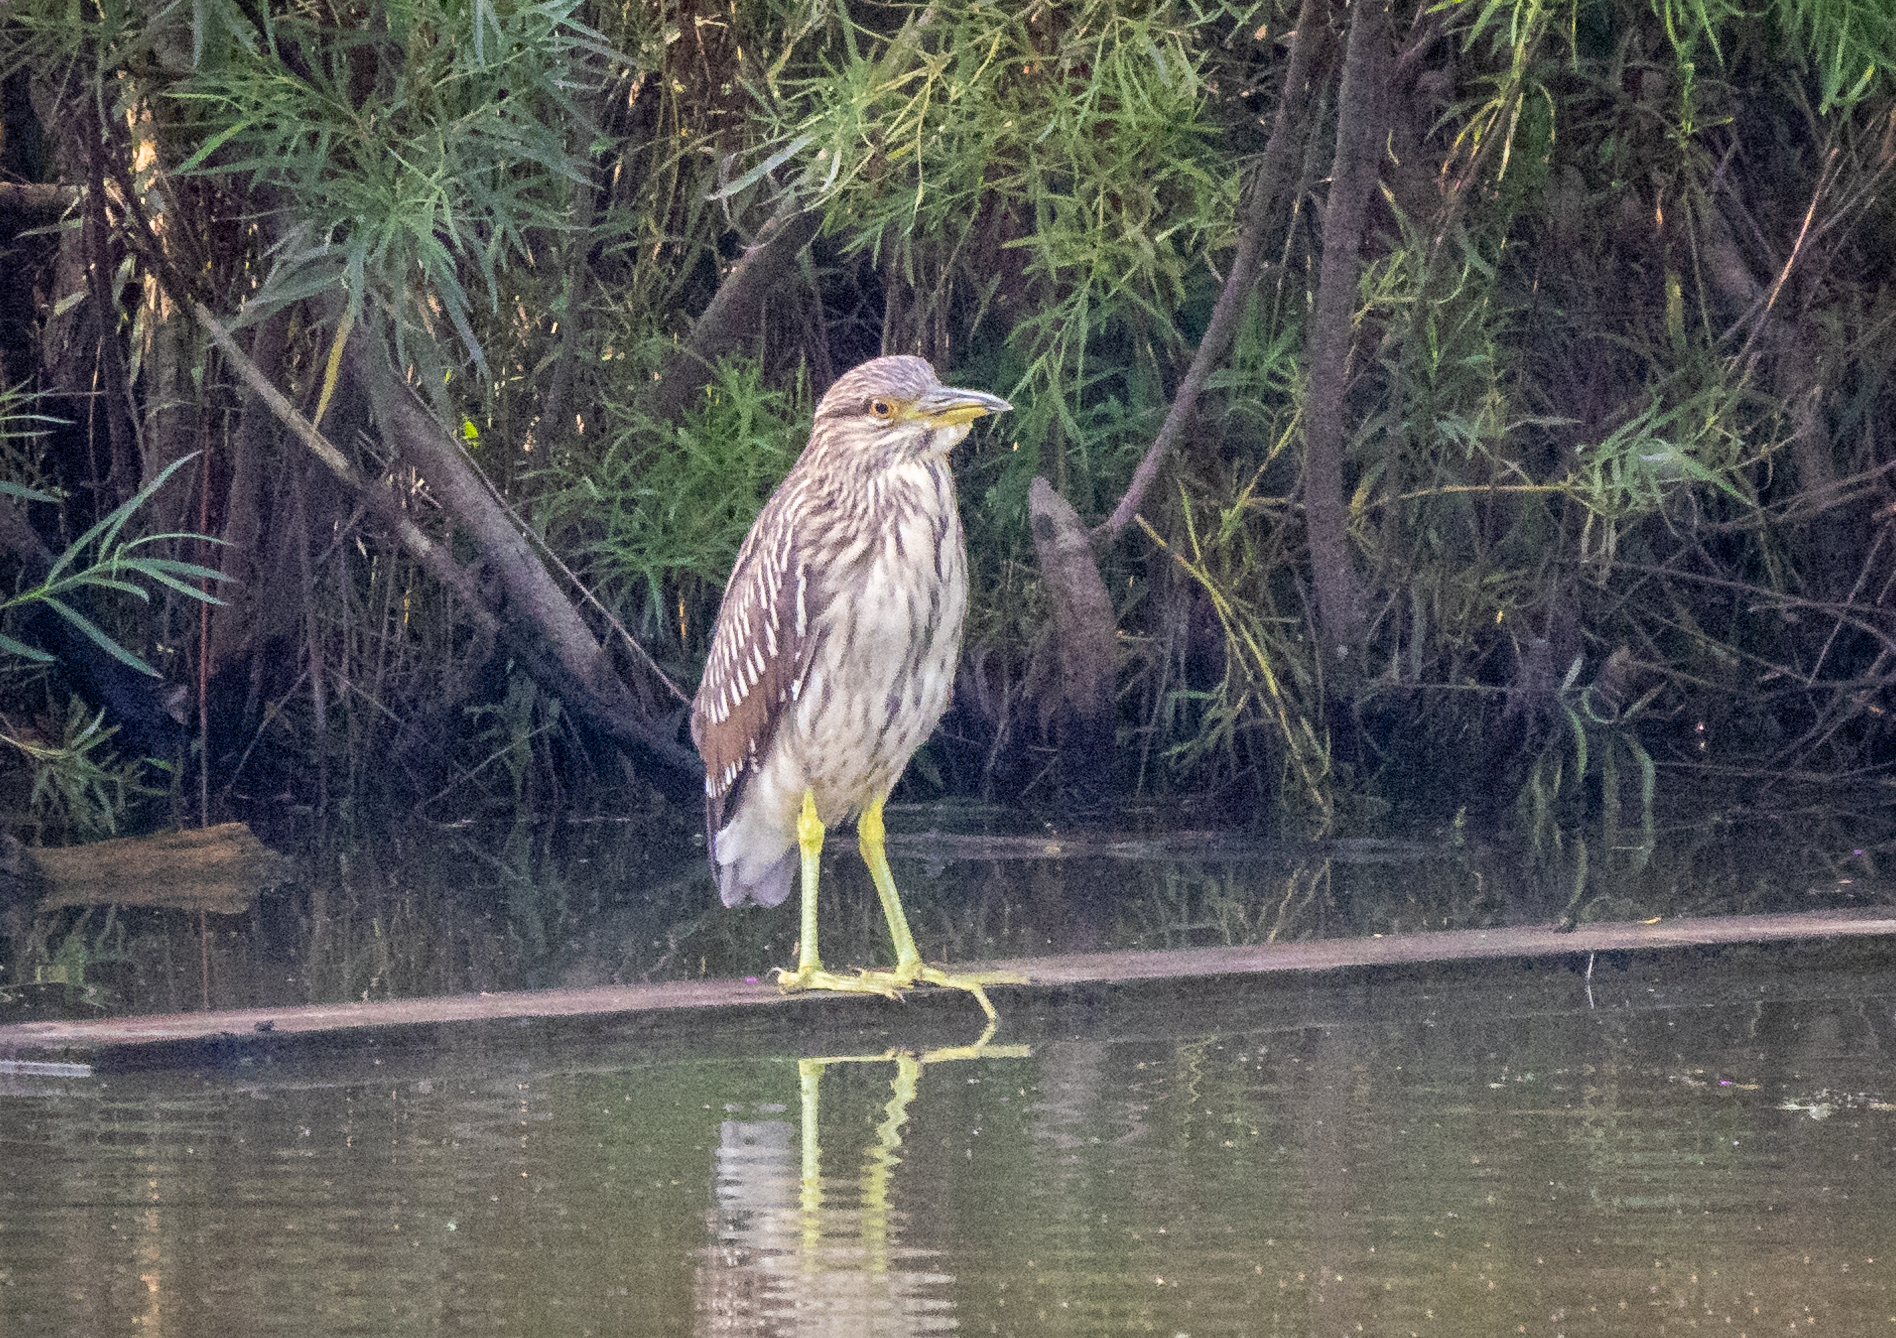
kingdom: Animalia
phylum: Chordata
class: Aves
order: Pelecaniformes
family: Ardeidae
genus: Nycticorax
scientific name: Nycticorax nycticorax
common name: Black-crowned night heron
